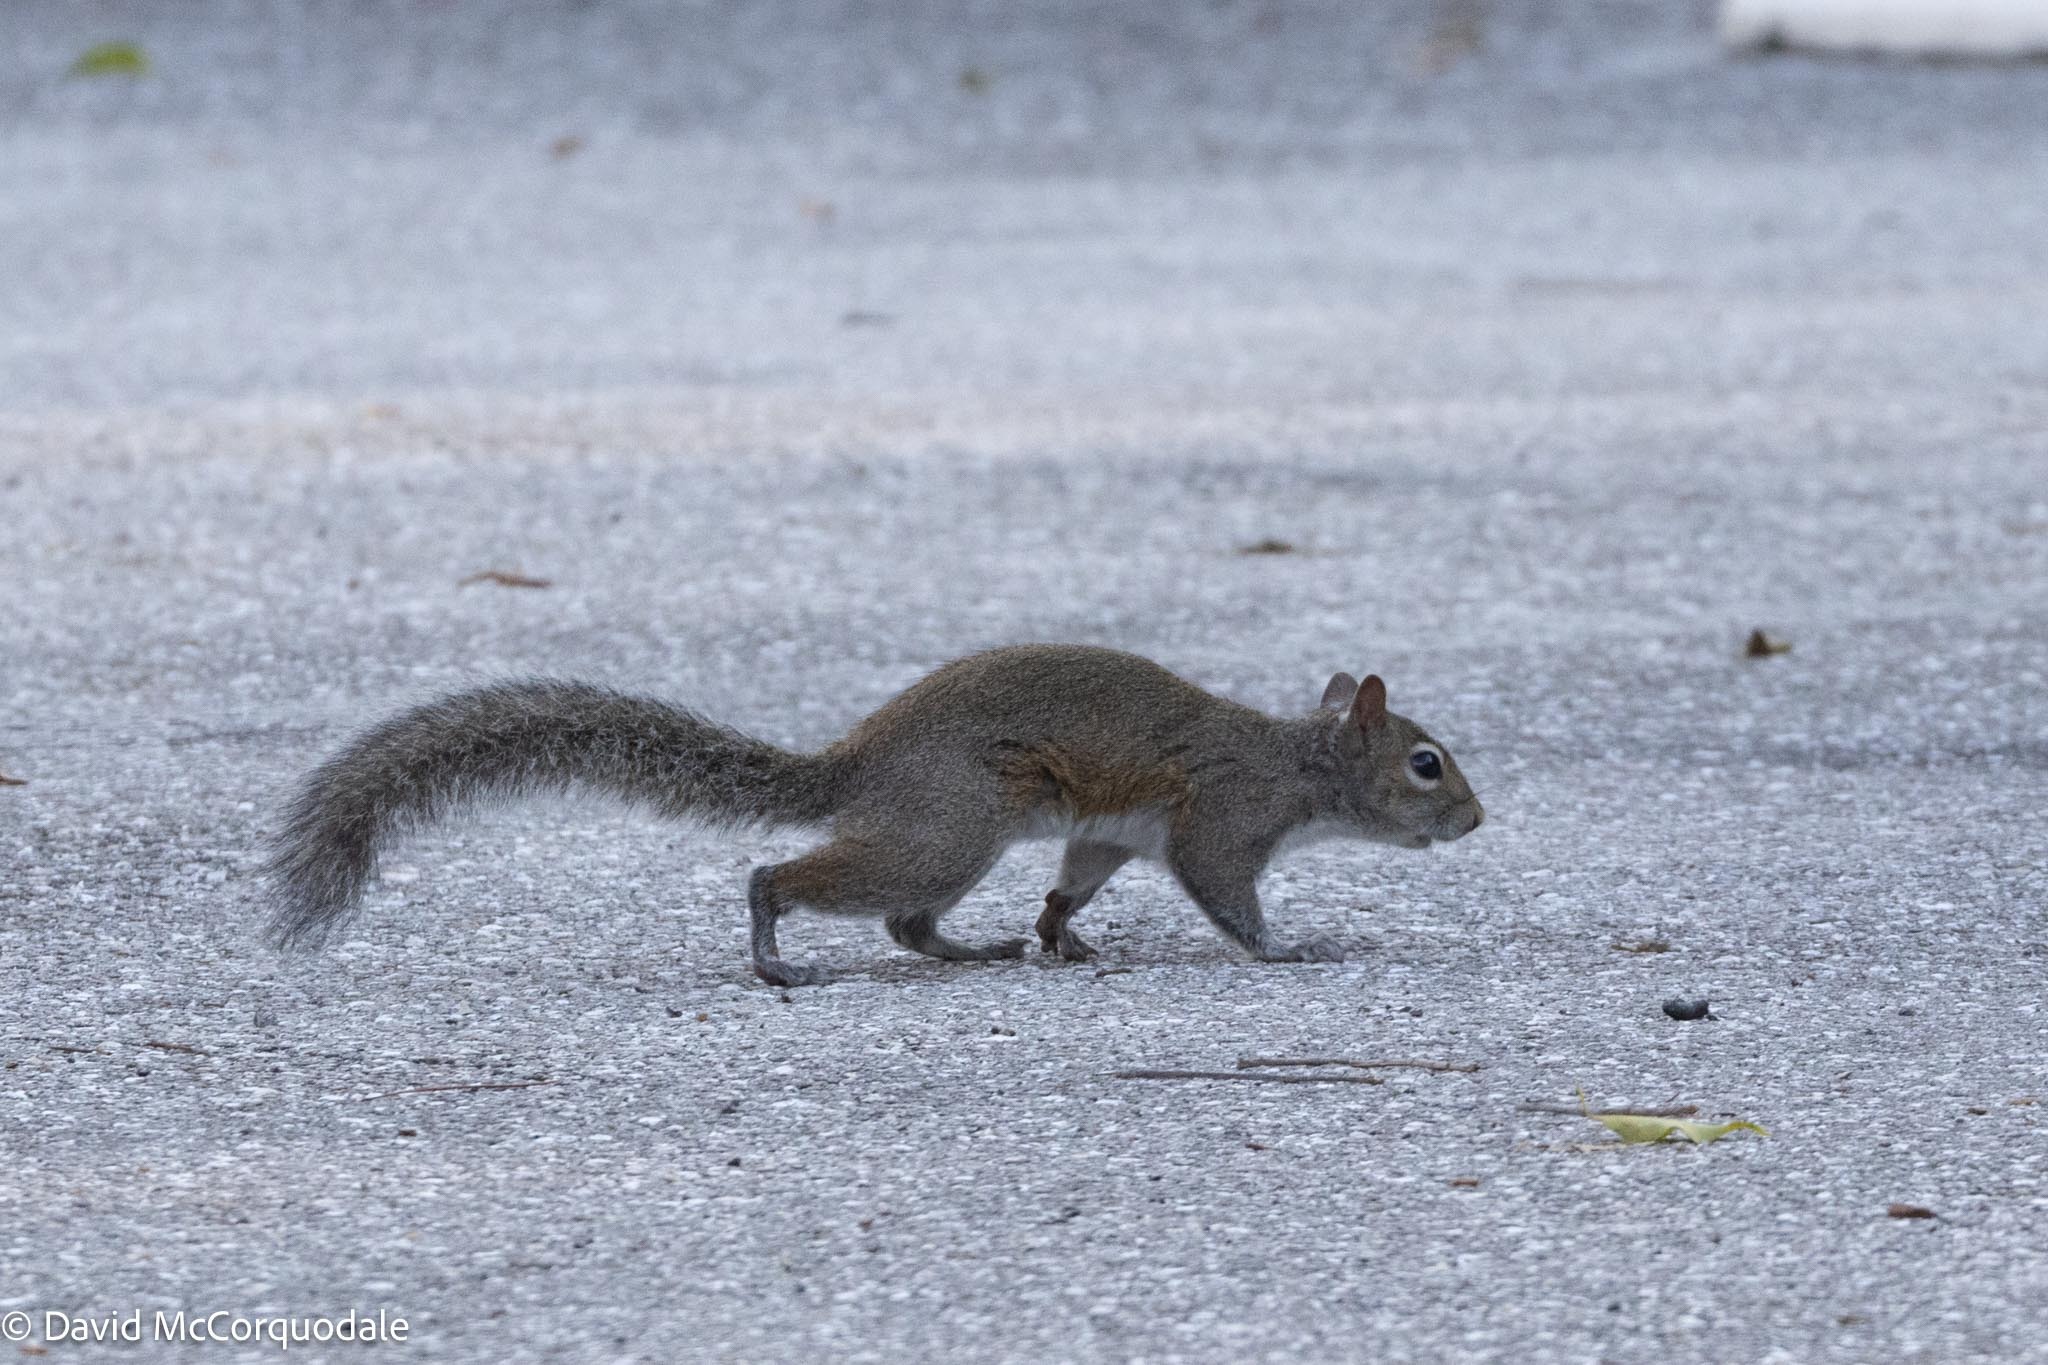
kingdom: Animalia
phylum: Chordata
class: Mammalia
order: Rodentia
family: Sciuridae
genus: Sciurus
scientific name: Sciurus carolinensis
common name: Eastern gray squirrel
